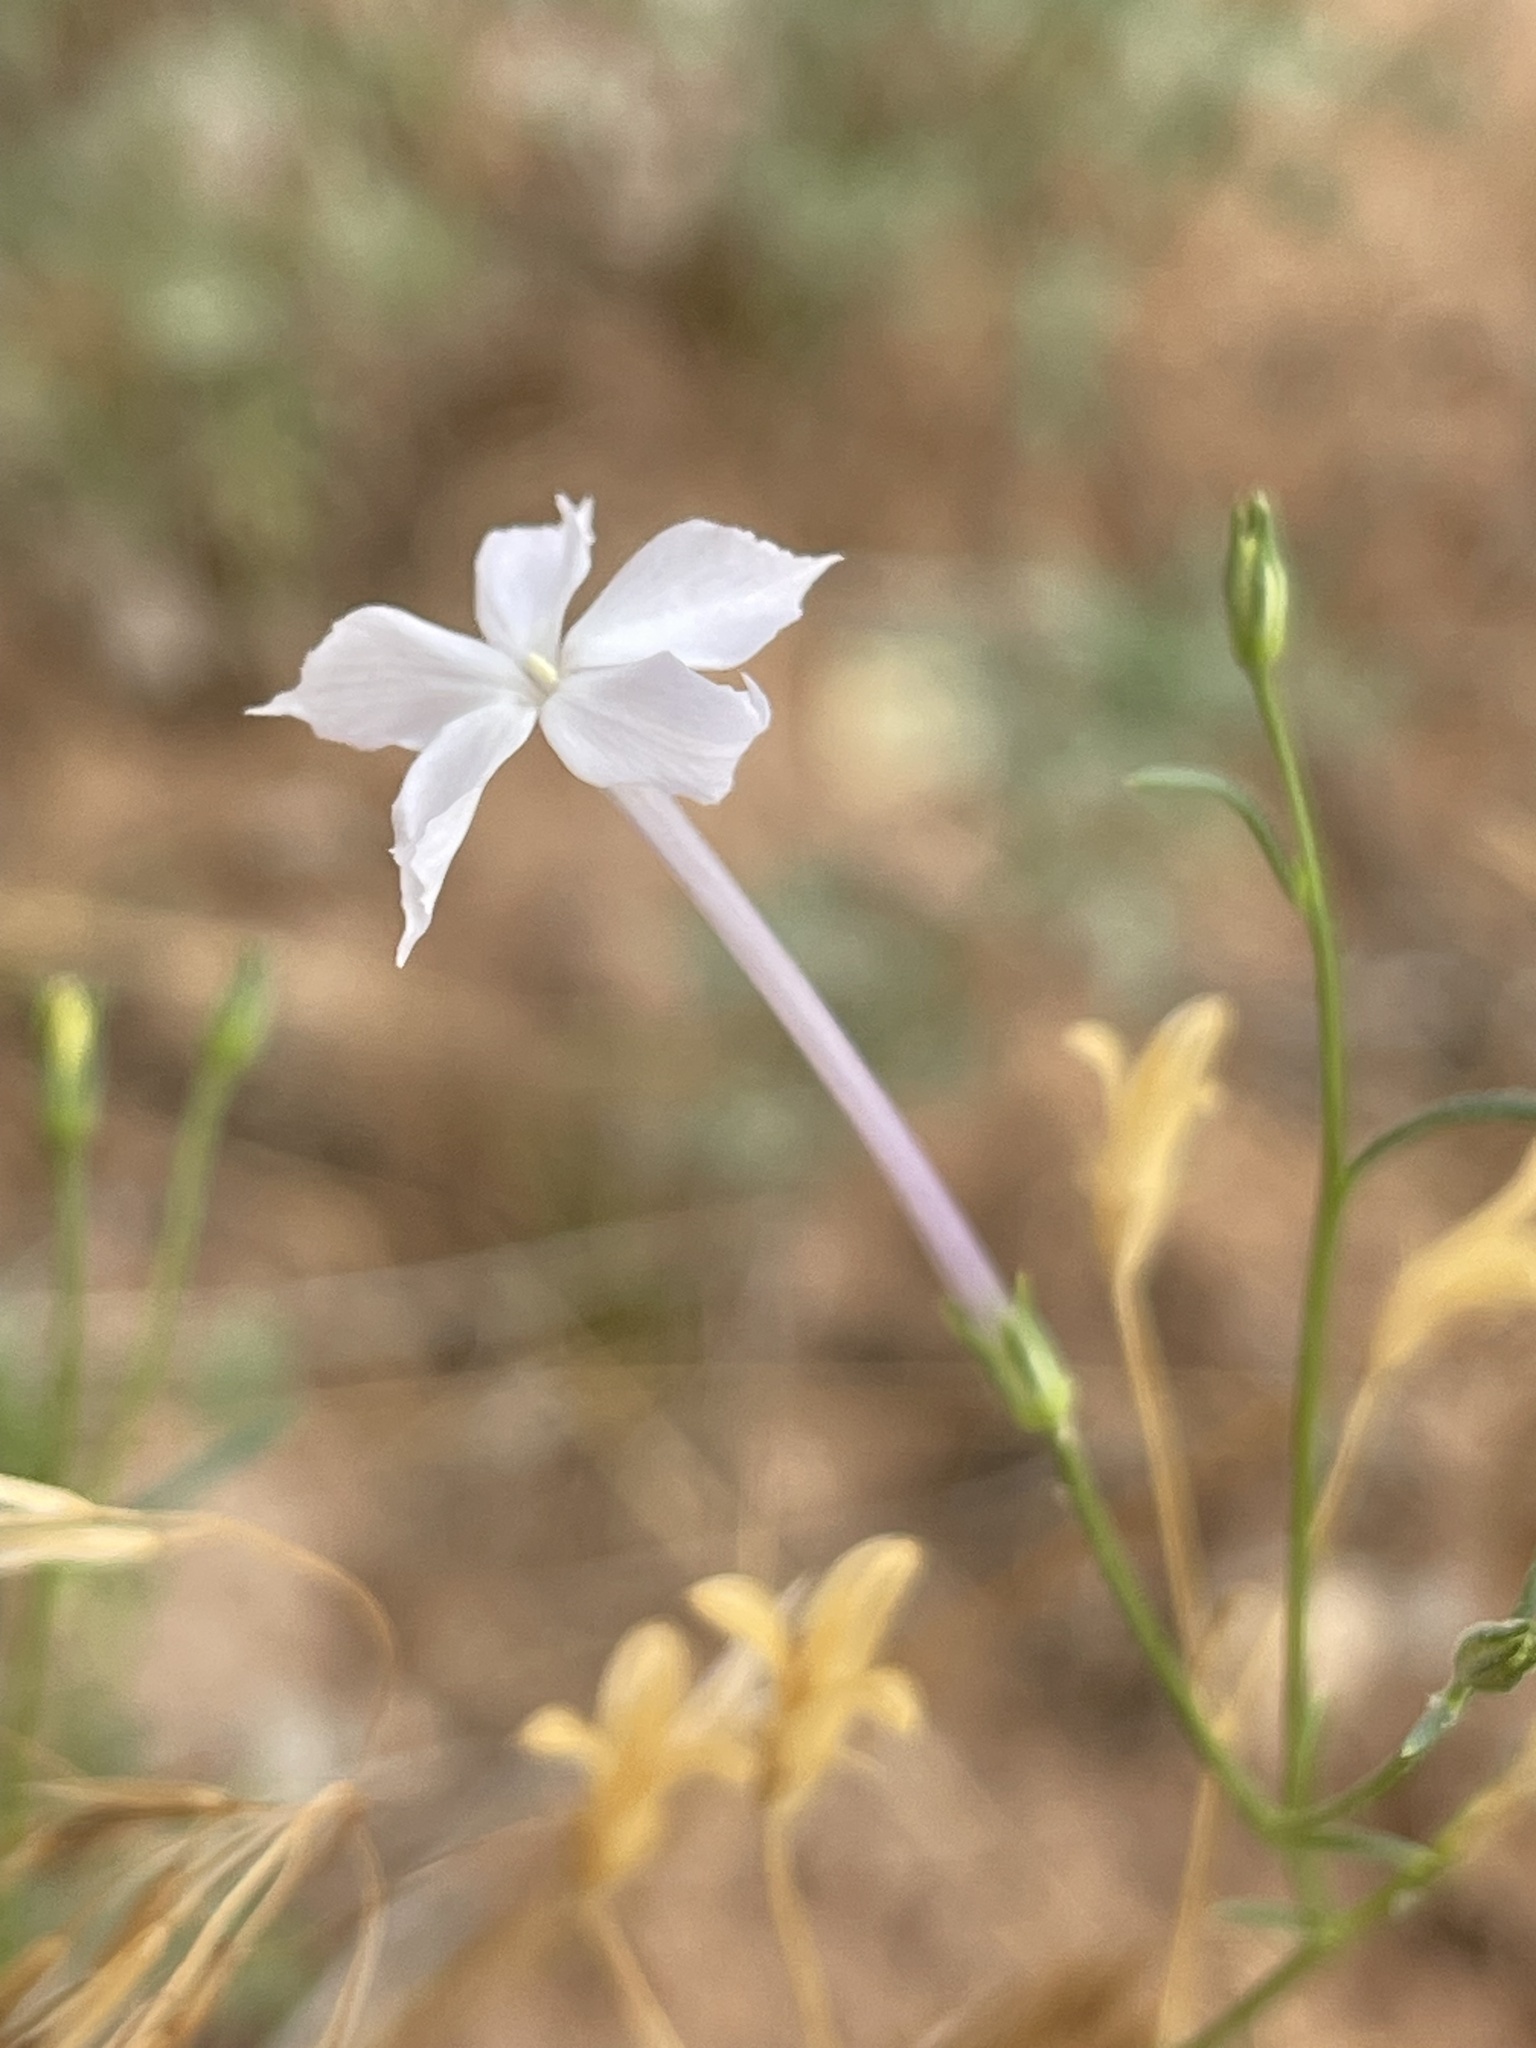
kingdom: Plantae
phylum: Tracheophyta
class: Magnoliopsida
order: Ericales
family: Polemoniaceae
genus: Ipomopsis
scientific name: Ipomopsis longiflora
